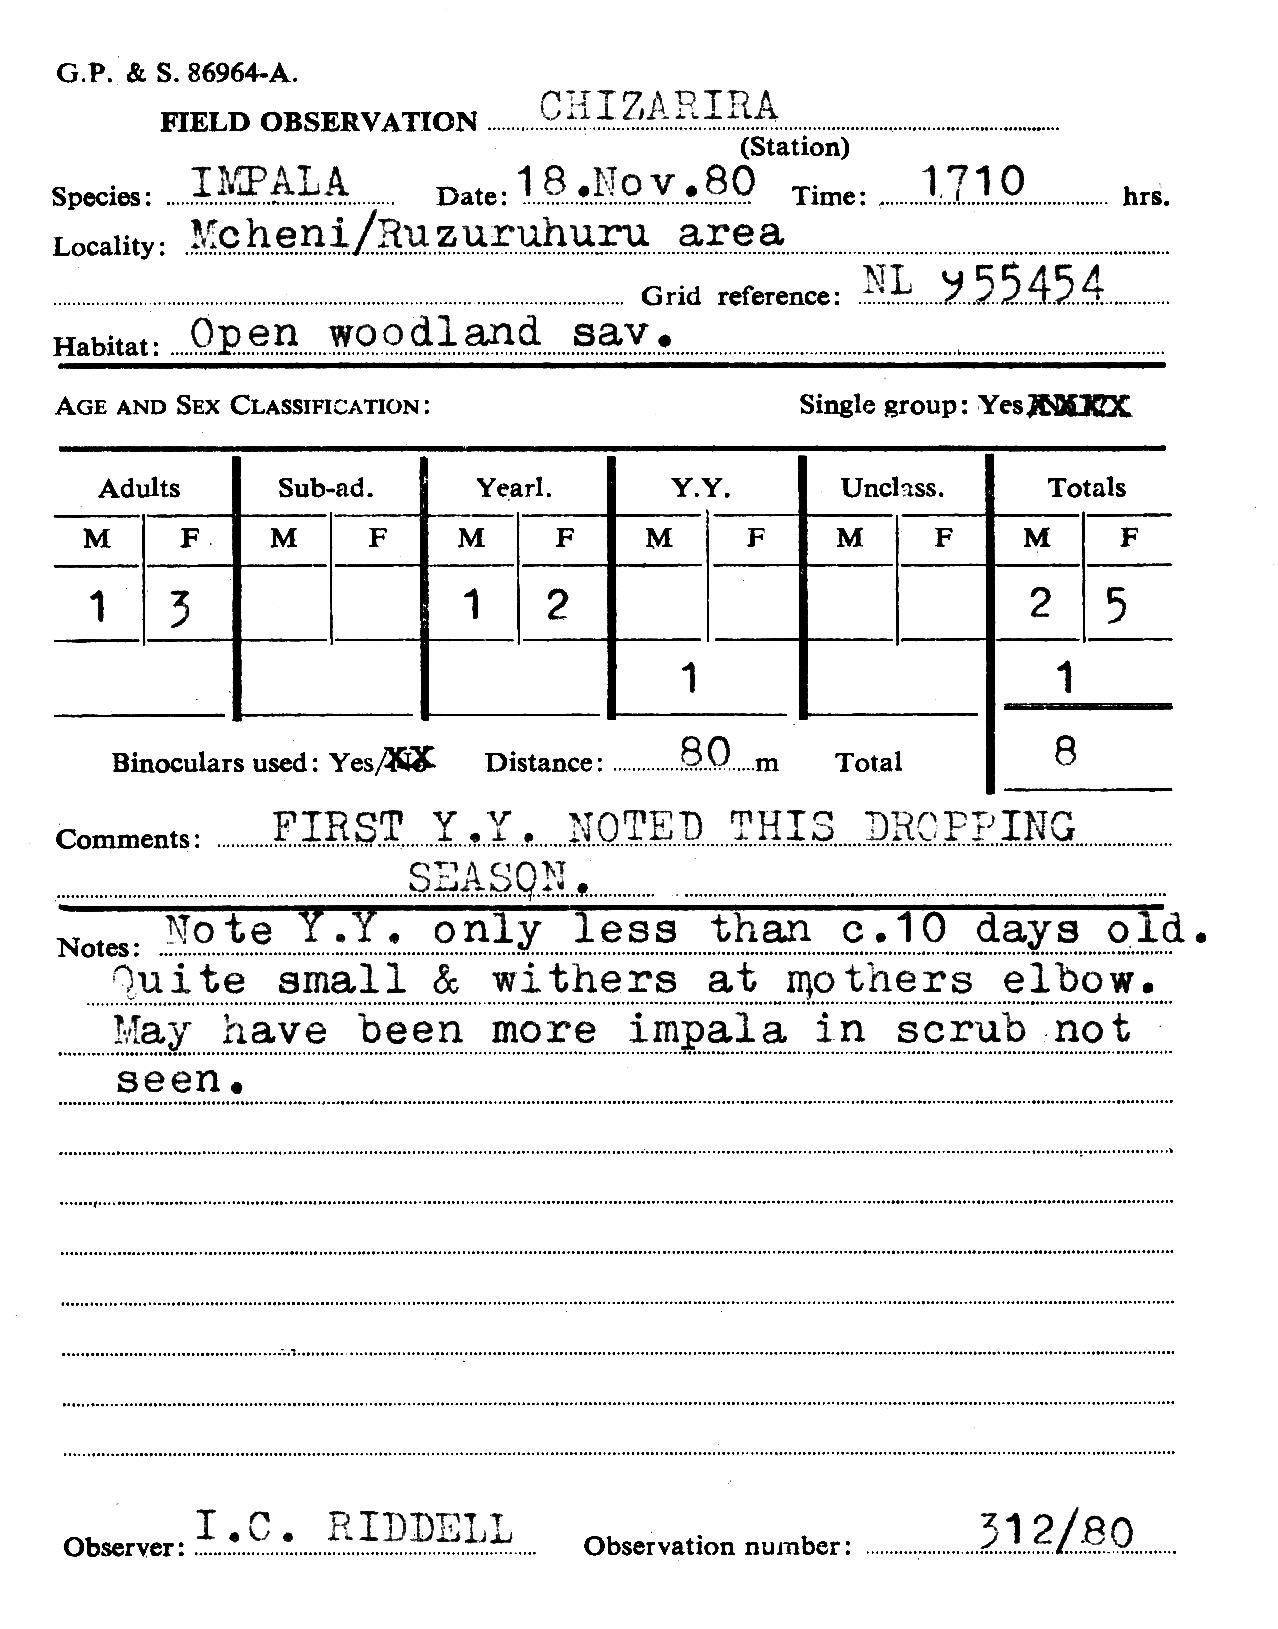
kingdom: Animalia
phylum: Chordata
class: Mammalia
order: Artiodactyla
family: Bovidae
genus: Aepyceros
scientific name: Aepyceros melampus
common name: Impala
